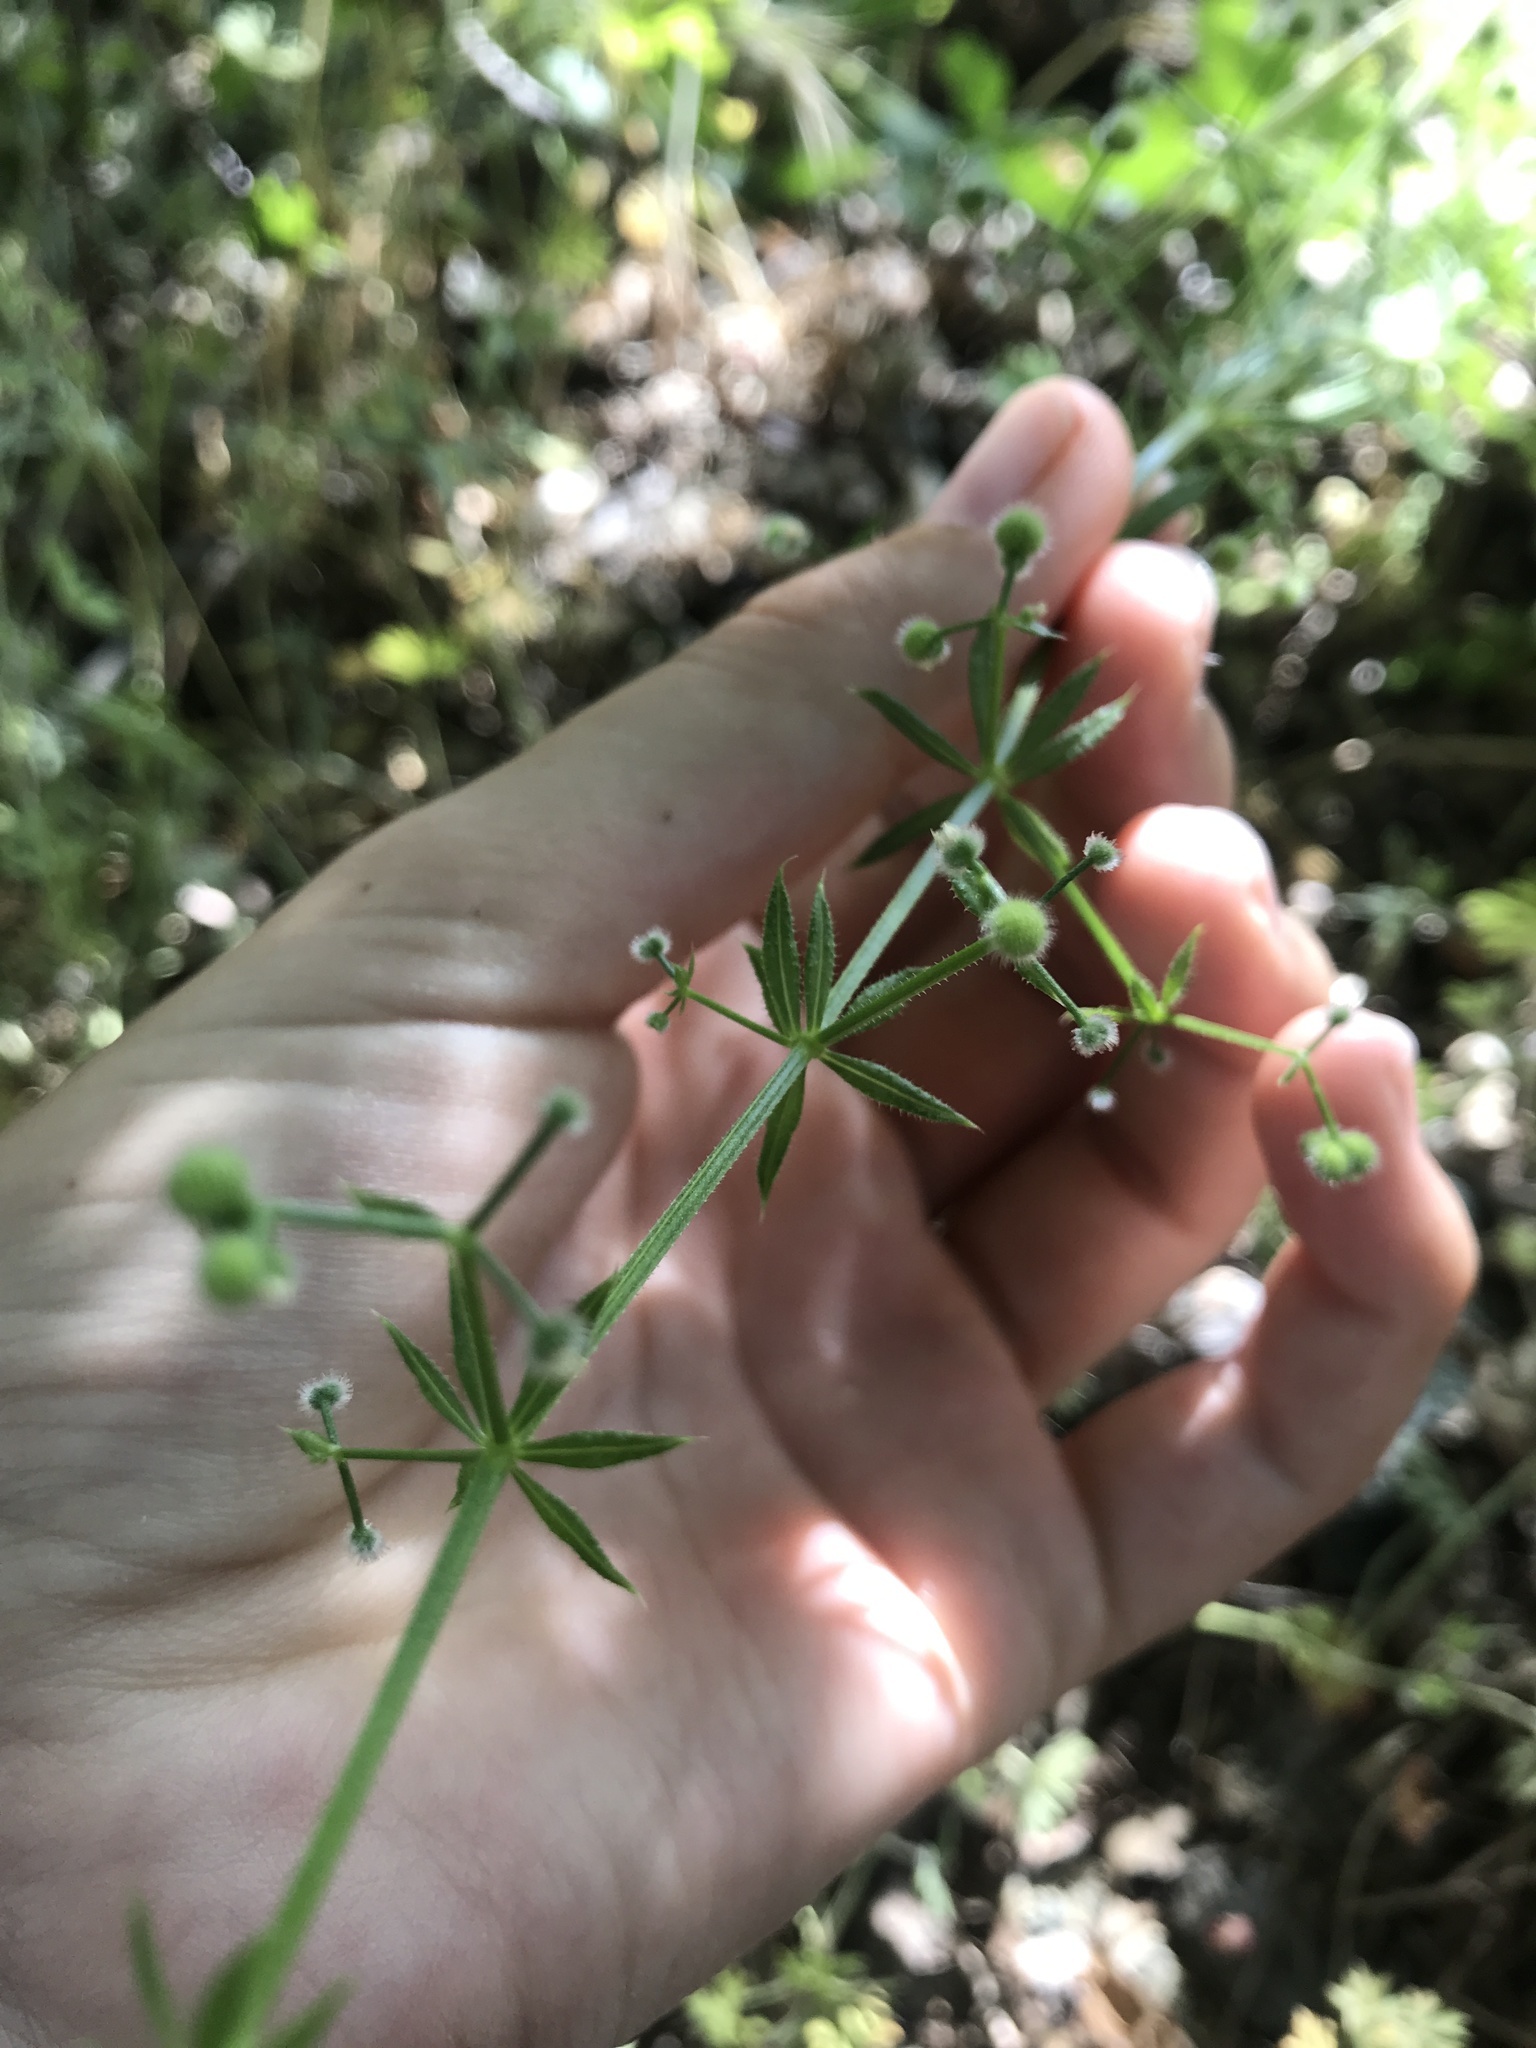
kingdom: Plantae
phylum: Tracheophyta
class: Magnoliopsida
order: Gentianales
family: Rubiaceae
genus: Galium
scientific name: Galium aparine
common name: Cleavers
